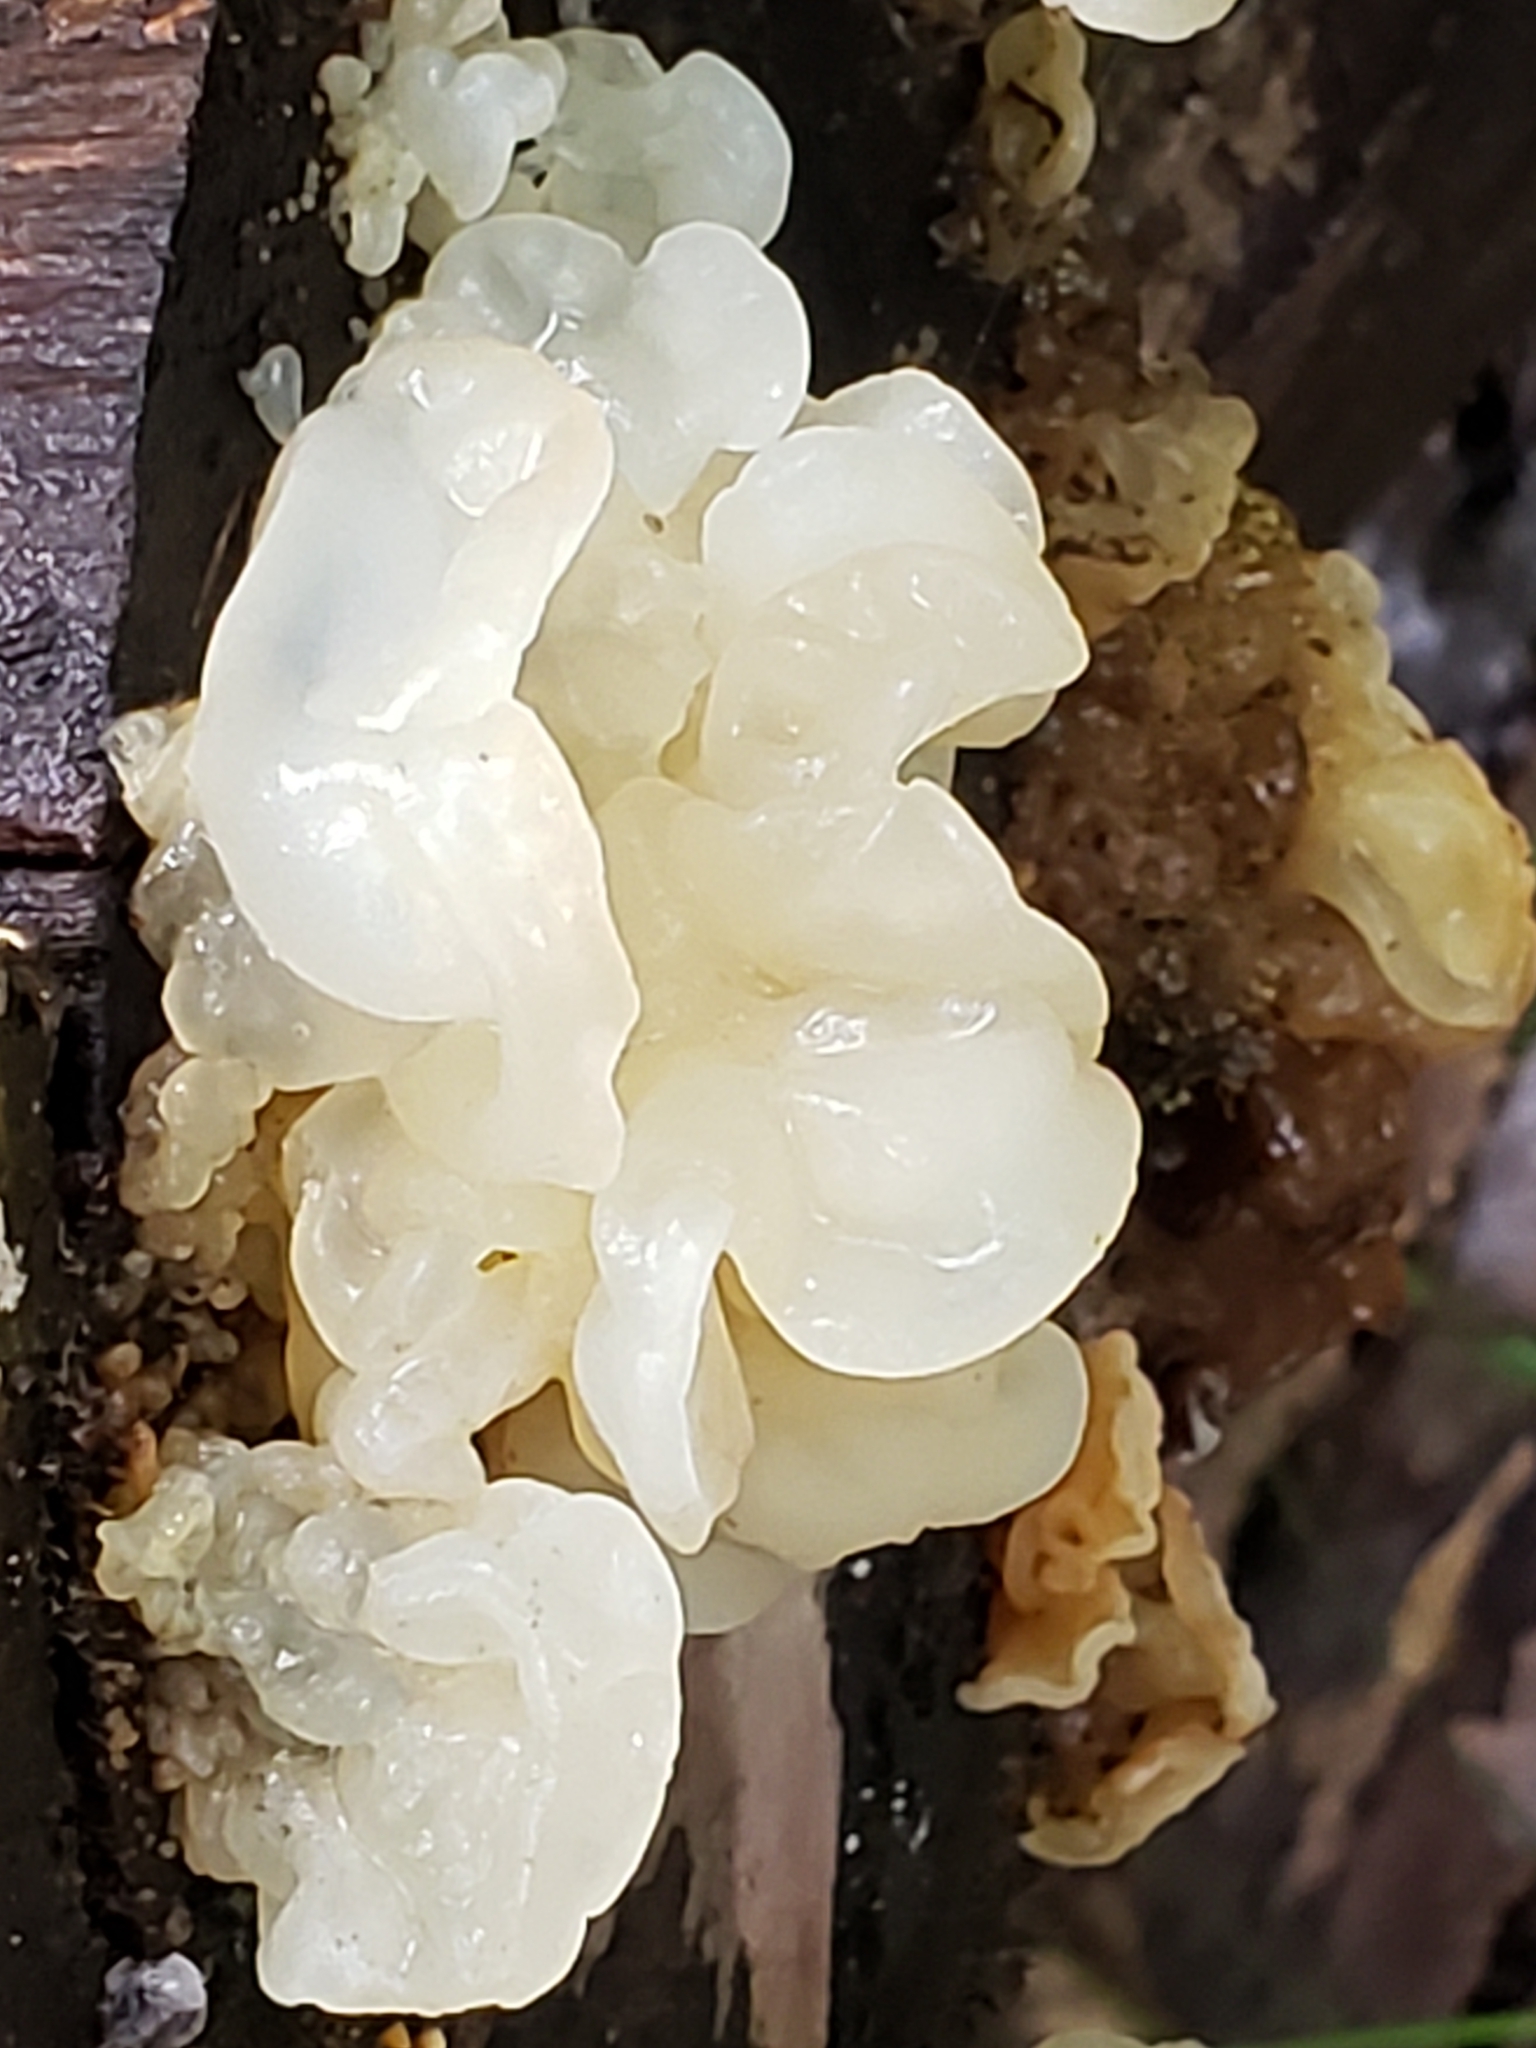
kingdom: Fungi
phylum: Basidiomycota
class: Agaricomycetes
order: Auriculariales
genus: Ductifera
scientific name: Ductifera pululahuana
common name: White jelly fungus
